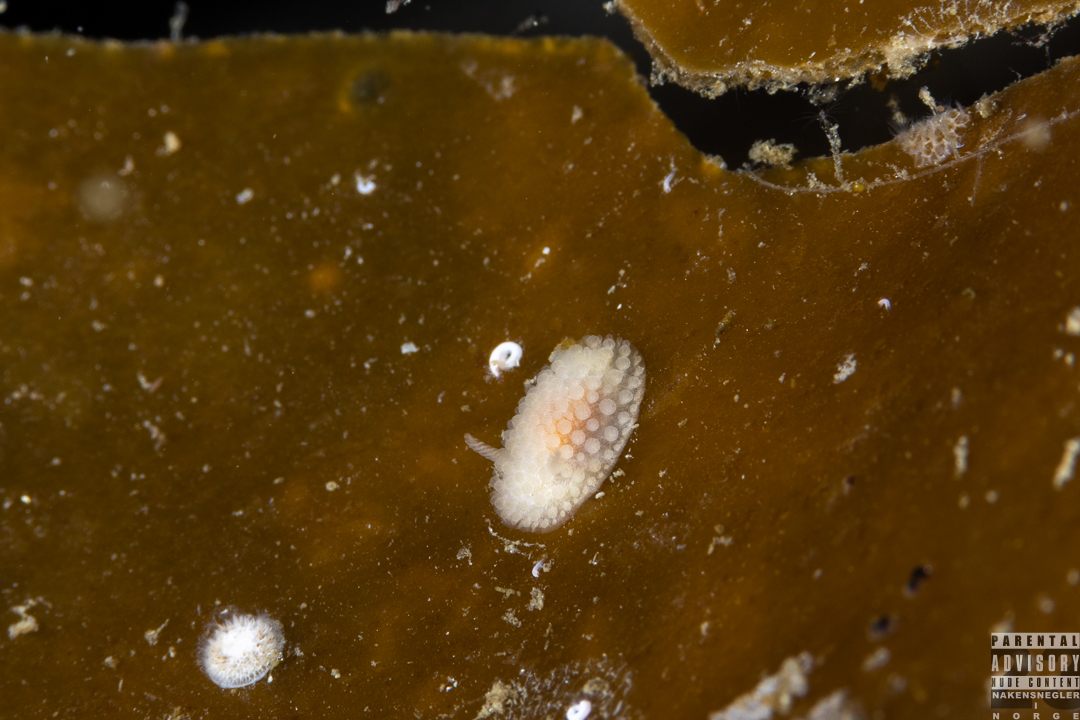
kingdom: Animalia
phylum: Mollusca
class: Gastropoda
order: Nudibranchia
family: Onchidorididae
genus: Onchidoris
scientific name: Onchidoris muricata
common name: Rough doris
